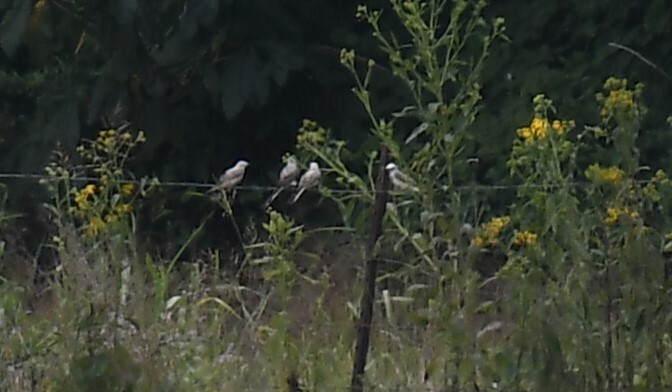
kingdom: Animalia
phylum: Chordata
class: Aves
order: Passeriformes
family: Tyrannidae
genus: Tyrannus
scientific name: Tyrannus forficatus
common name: Scissor-tailed flycatcher
